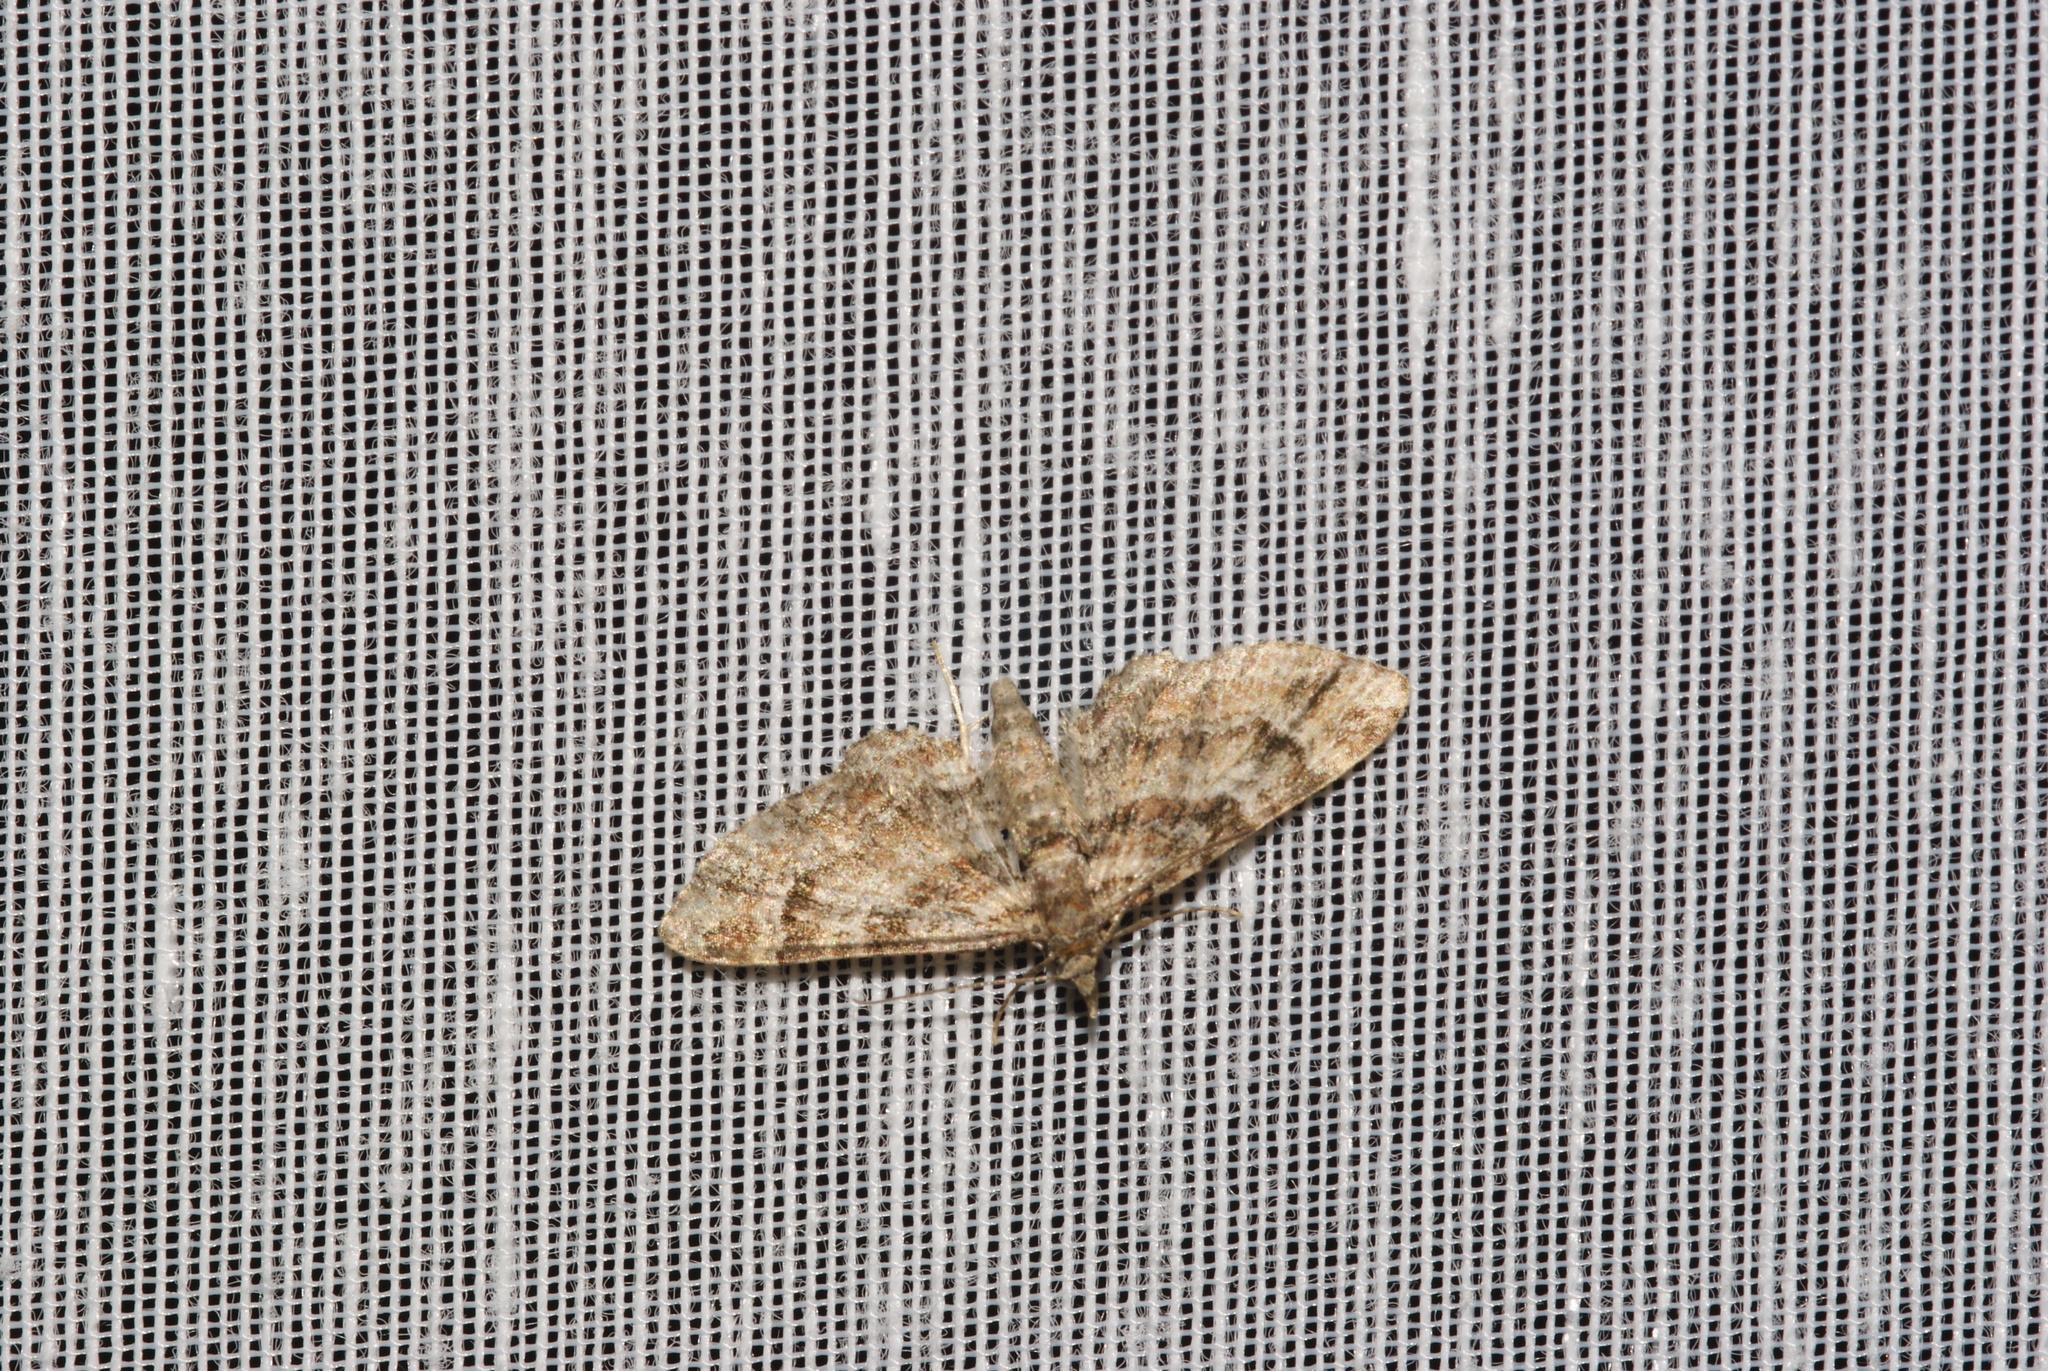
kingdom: Animalia
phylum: Arthropoda
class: Insecta
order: Lepidoptera
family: Geometridae
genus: Gymnoscelis
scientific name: Gymnoscelis rufifasciata
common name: Double-striped pug
